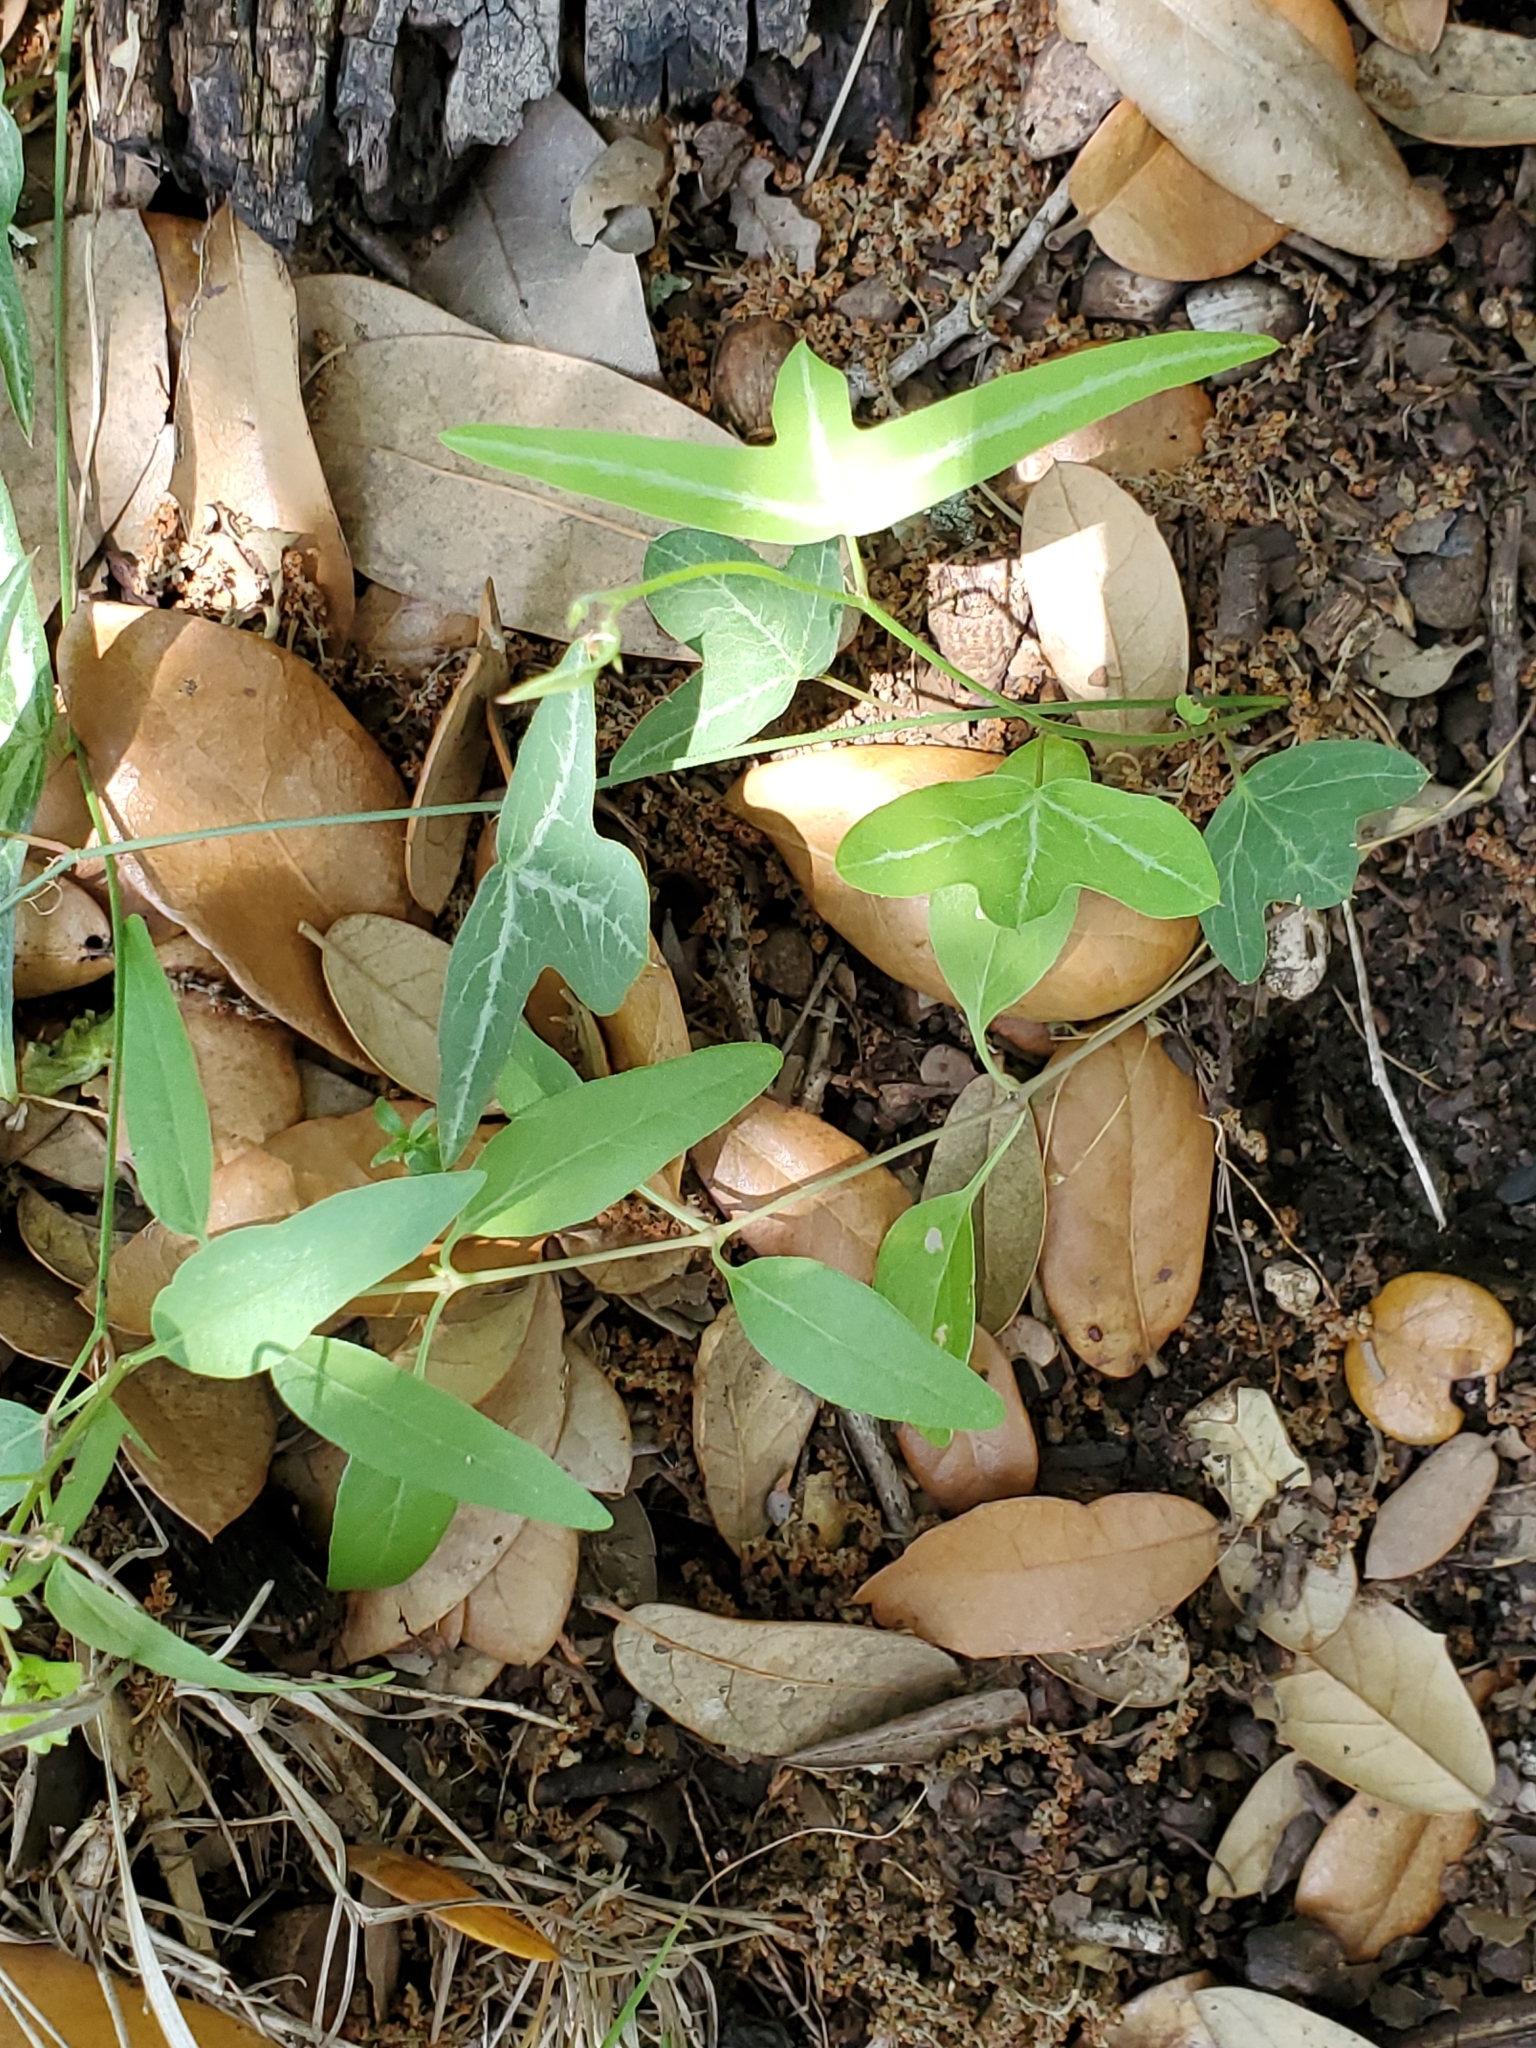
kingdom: Plantae
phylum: Tracheophyta
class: Magnoliopsida
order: Malpighiales
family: Passifloraceae
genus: Passiflora
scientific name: Passiflora tenuiloba
